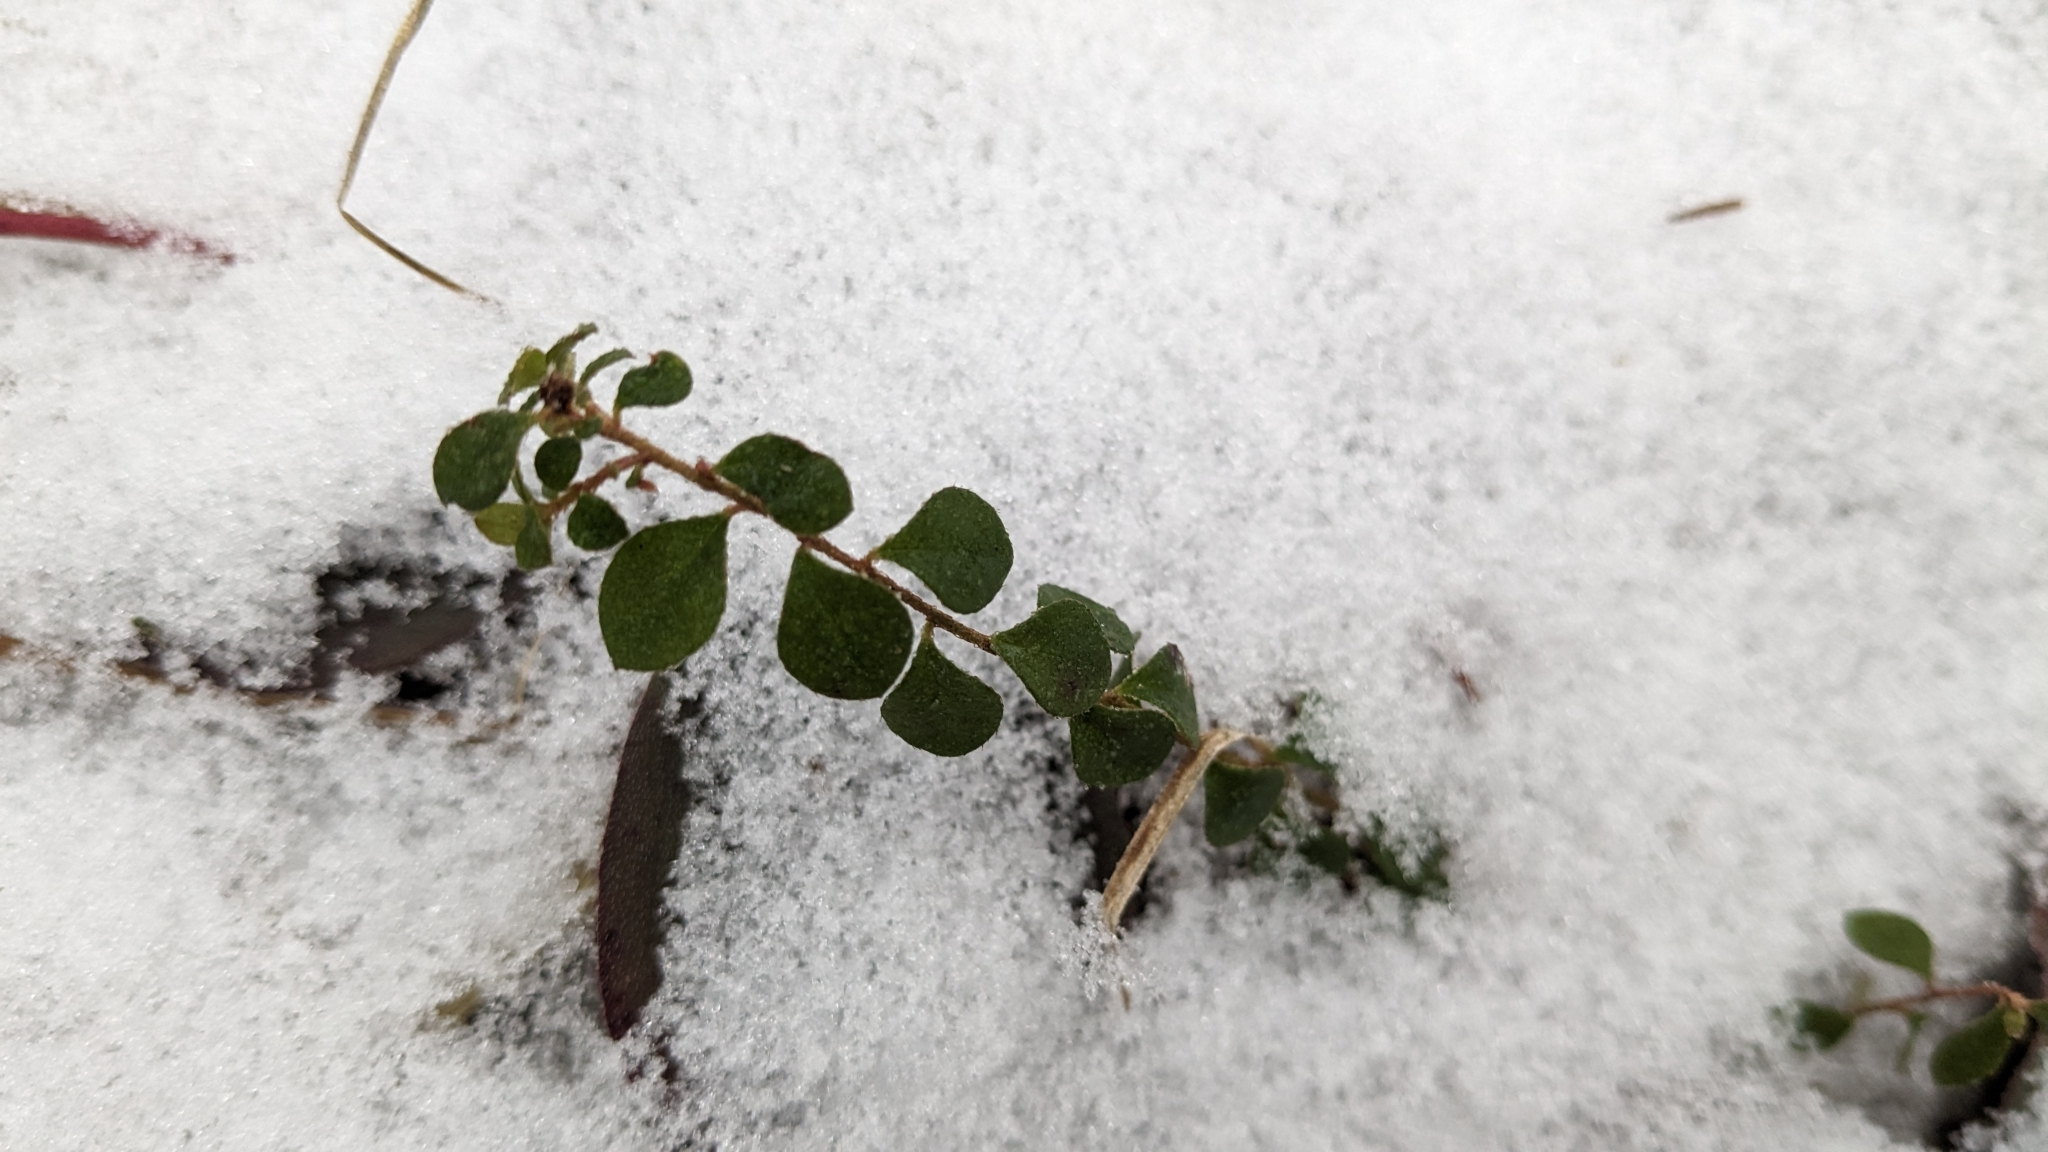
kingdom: Plantae
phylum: Tracheophyta
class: Magnoliopsida
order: Ericales
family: Ericaceae
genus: Gaultheria
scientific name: Gaultheria hispidula
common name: Cancer wintergreen
